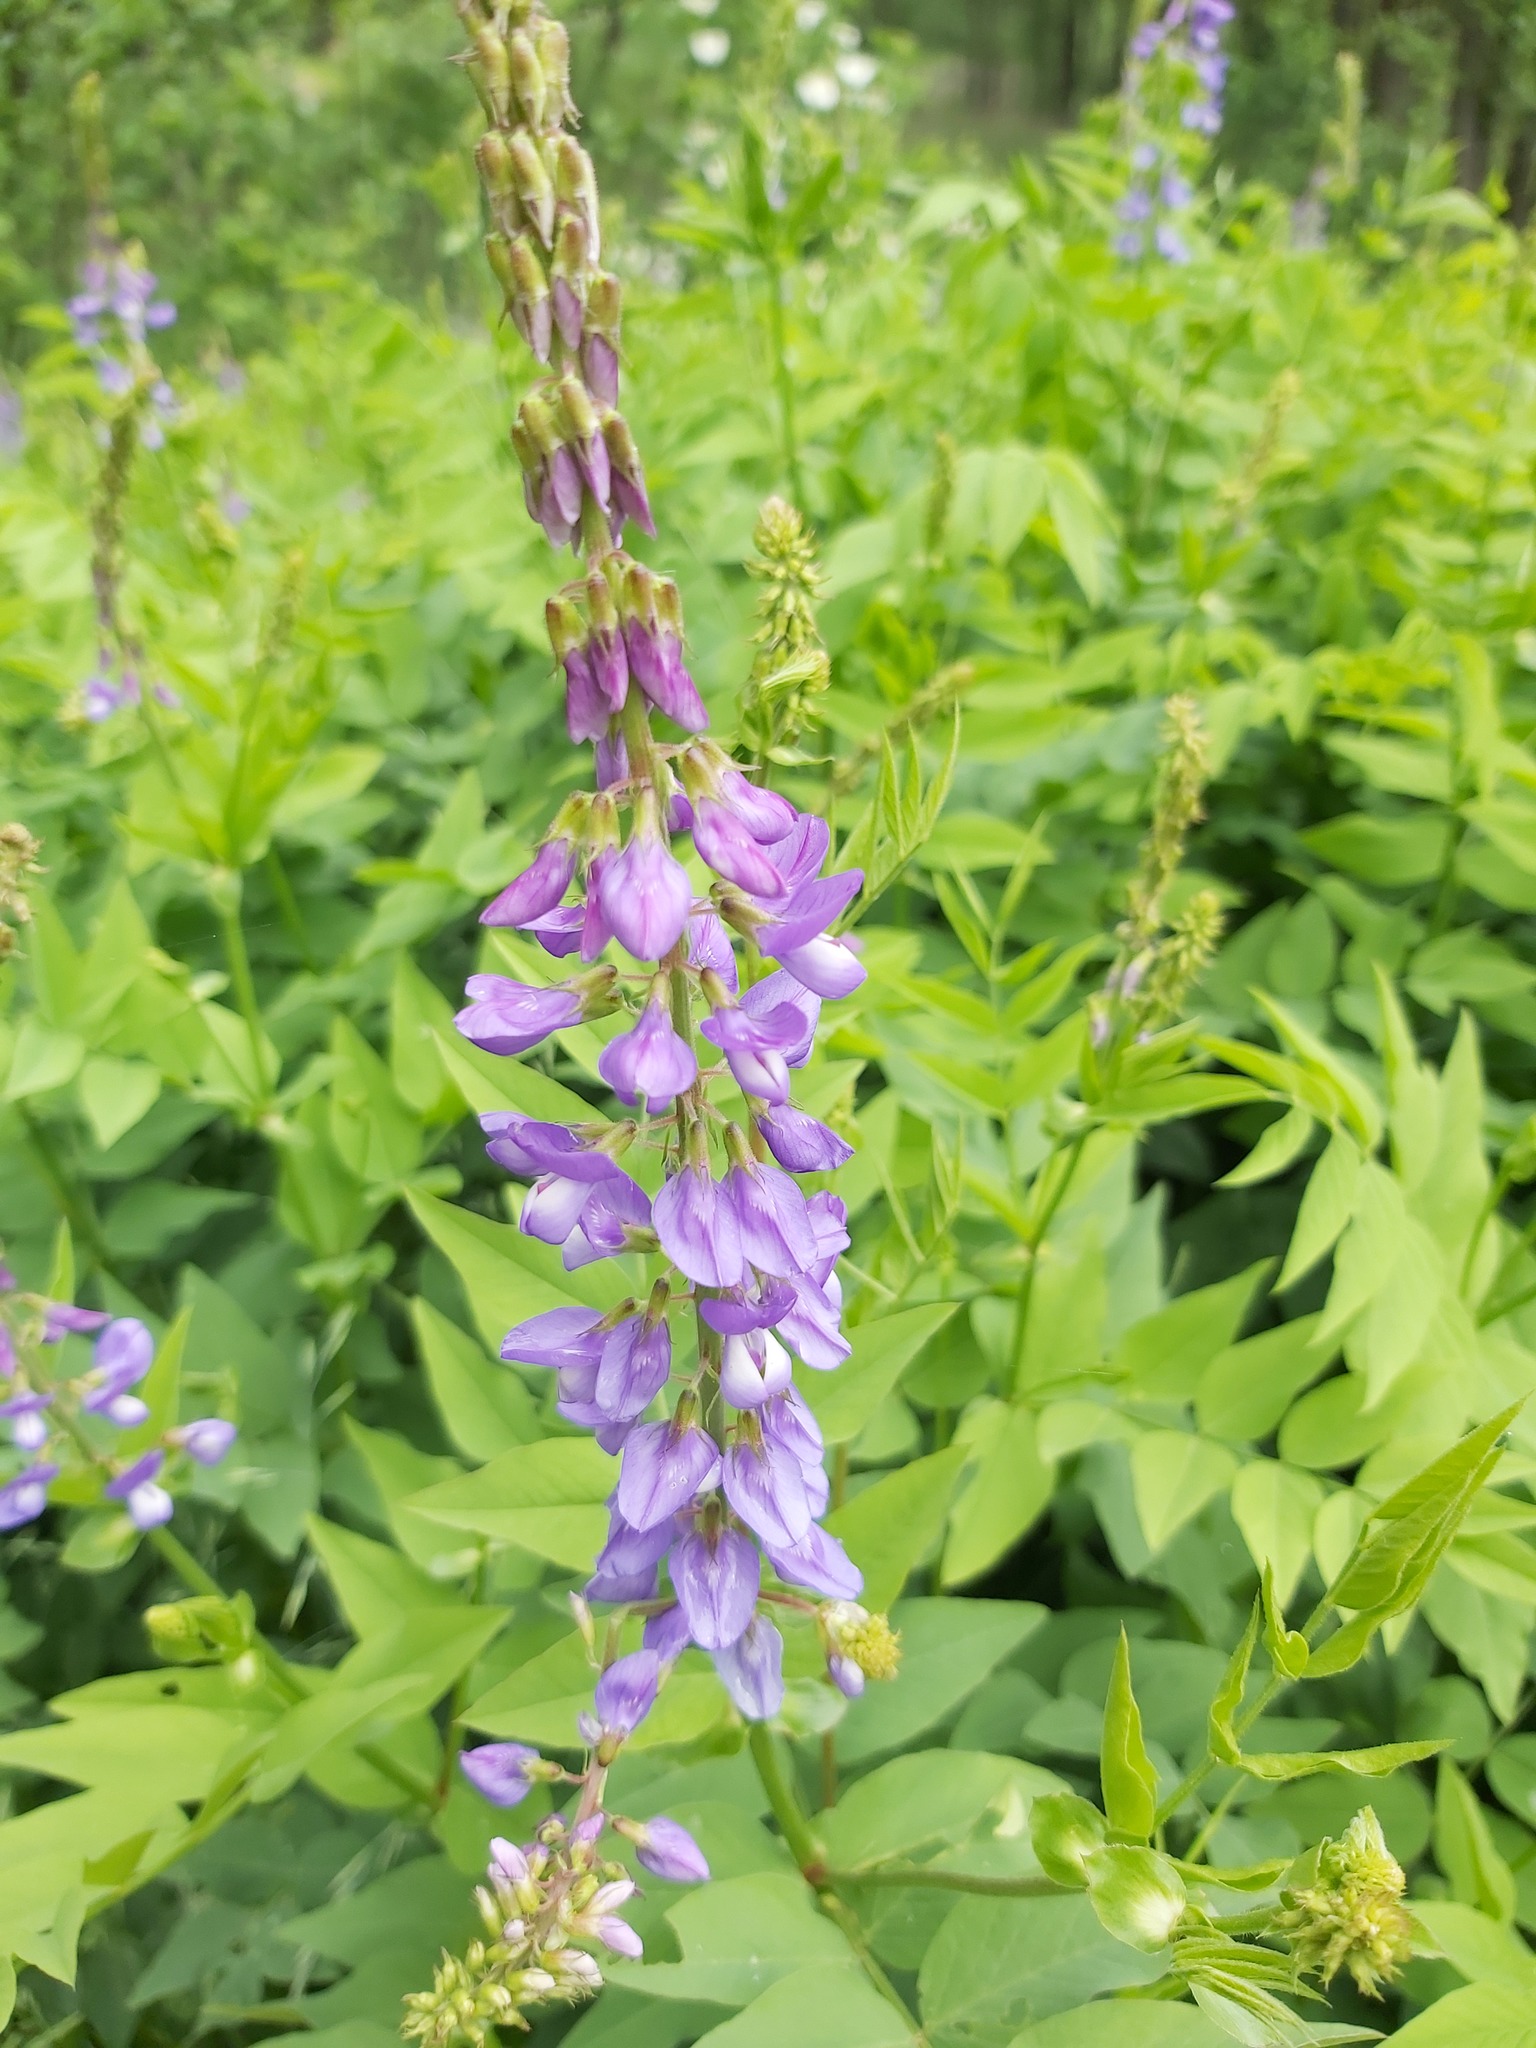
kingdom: Plantae
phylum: Tracheophyta
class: Magnoliopsida
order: Fabales
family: Fabaceae
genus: Galega
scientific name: Galega orientalis
